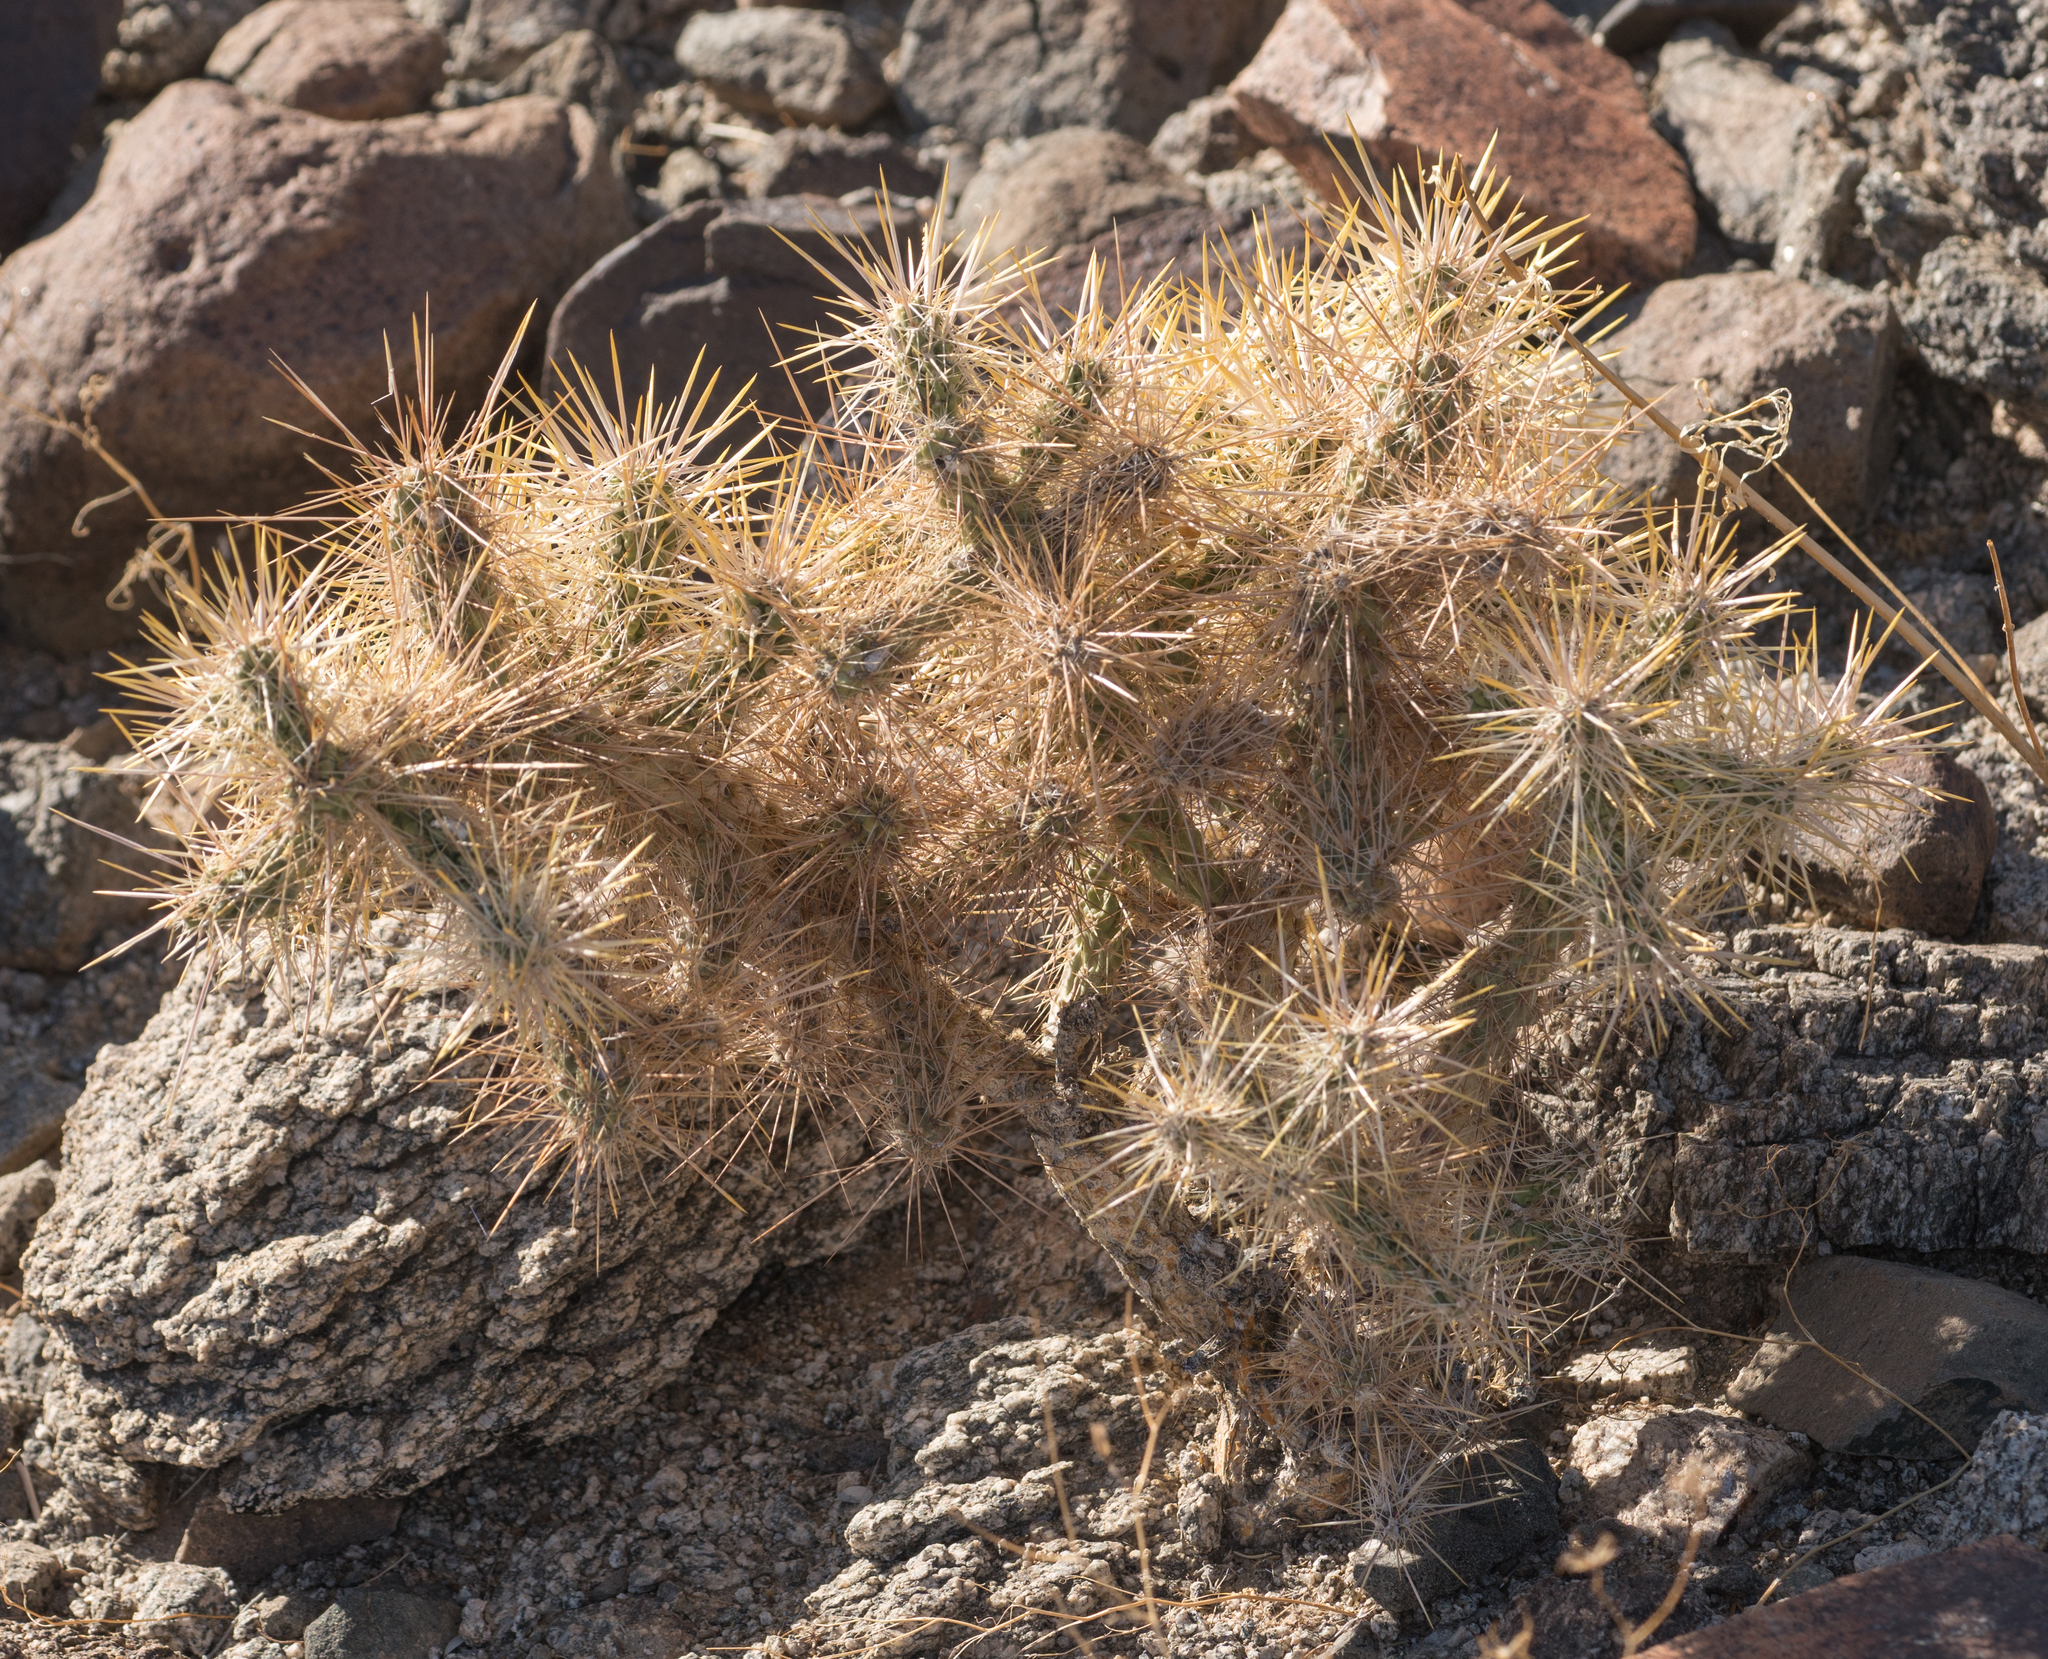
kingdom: Plantae
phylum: Tracheophyta
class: Magnoliopsida
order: Caryophyllales
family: Cactaceae
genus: Cylindropuntia
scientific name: Cylindropuntia echinocarpa
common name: Ground cholla
